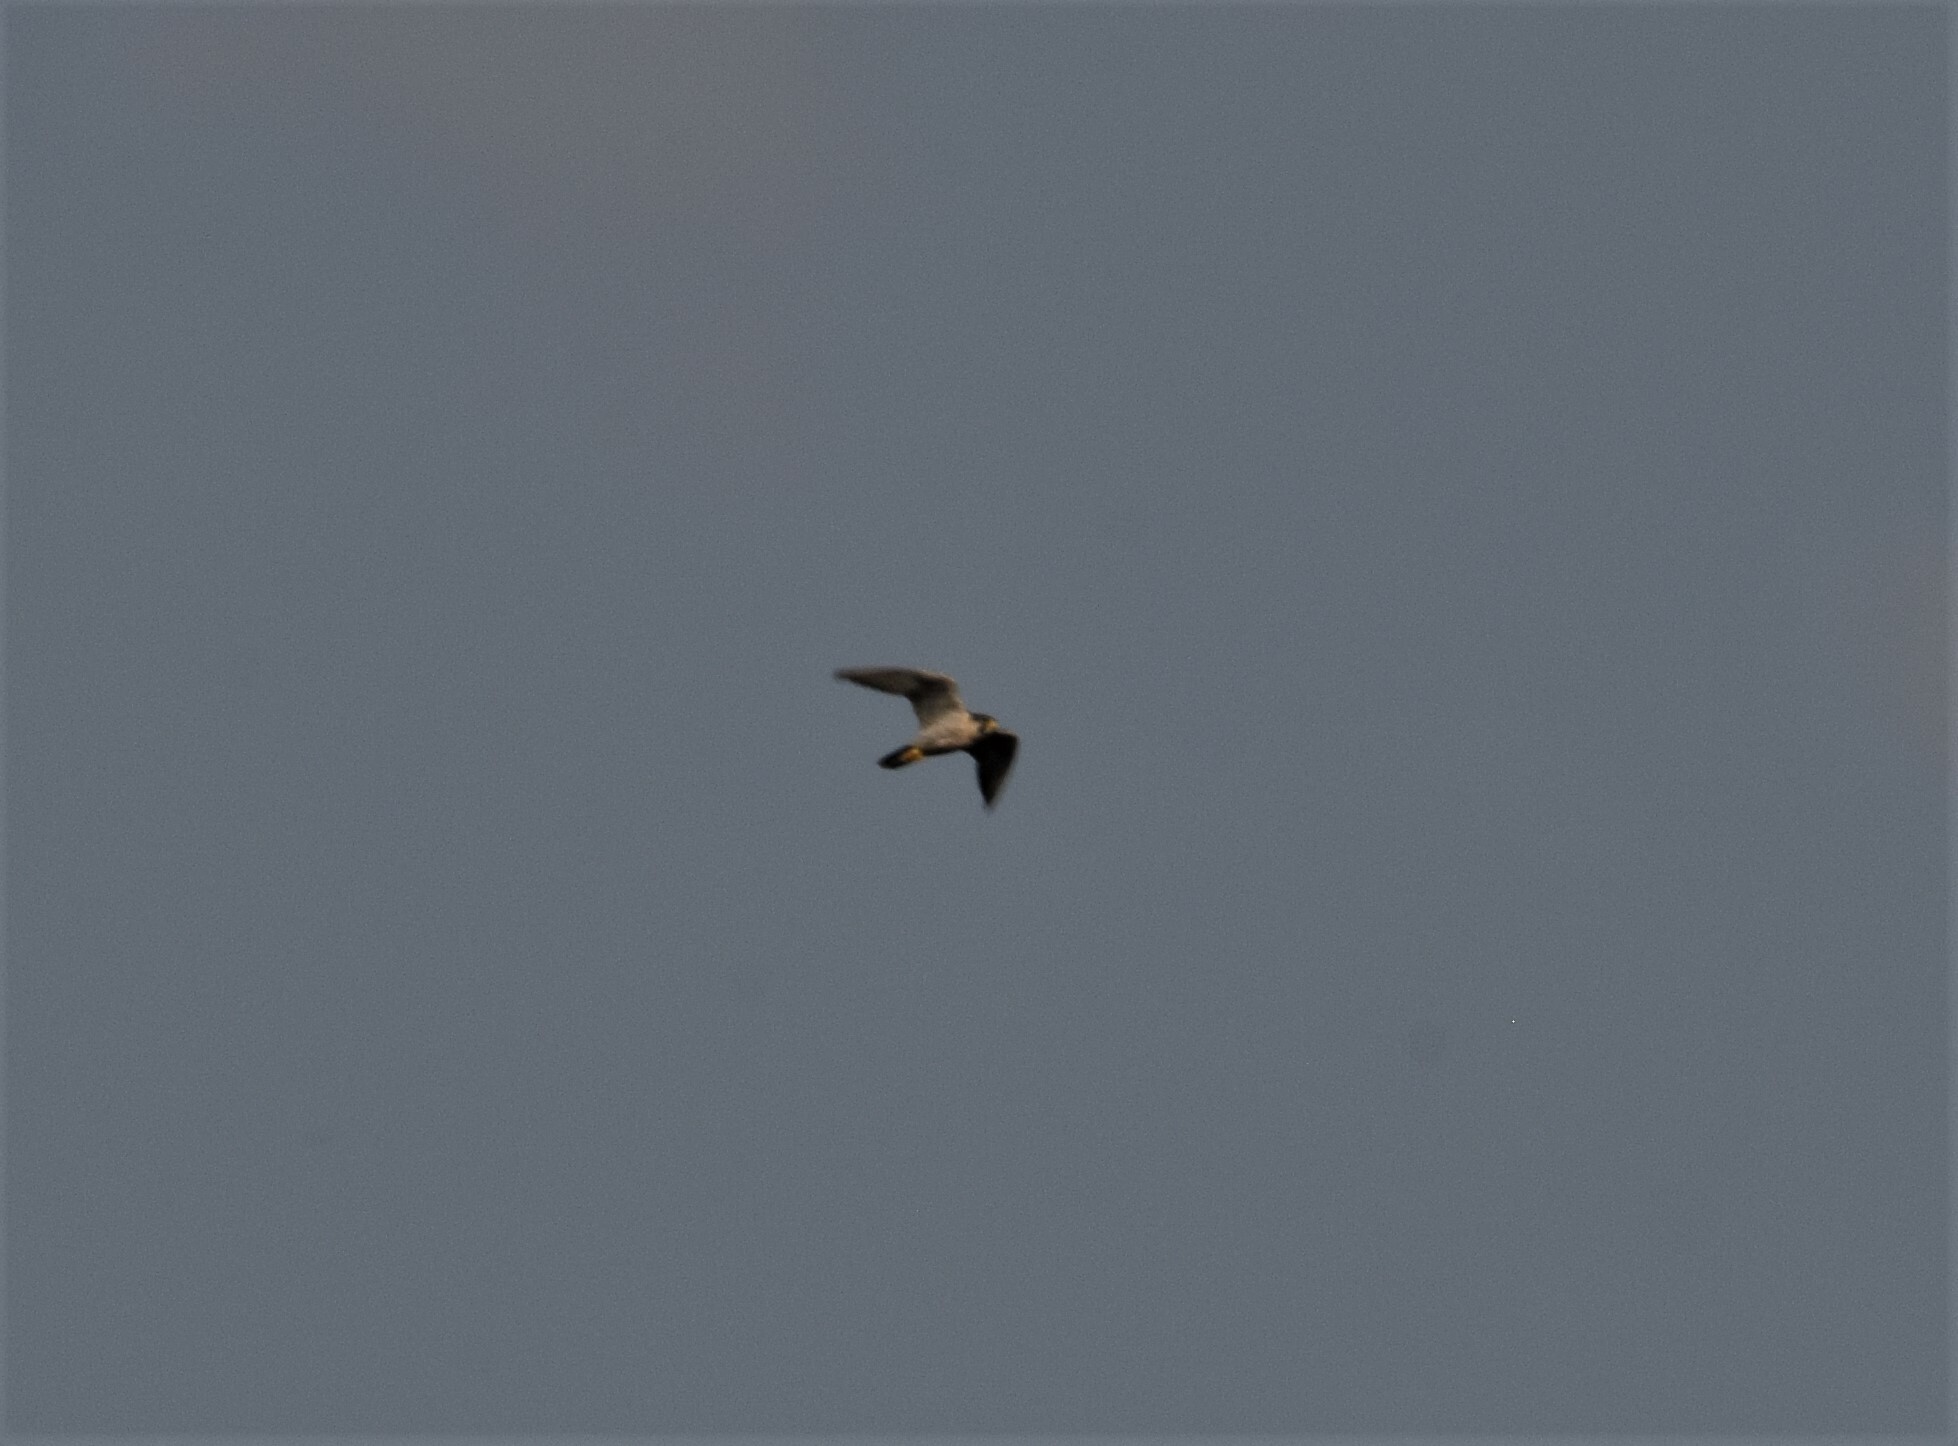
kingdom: Animalia
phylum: Chordata
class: Aves
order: Falconiformes
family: Falconidae
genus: Falco
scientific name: Falco peregrinus
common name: Peregrine falcon
